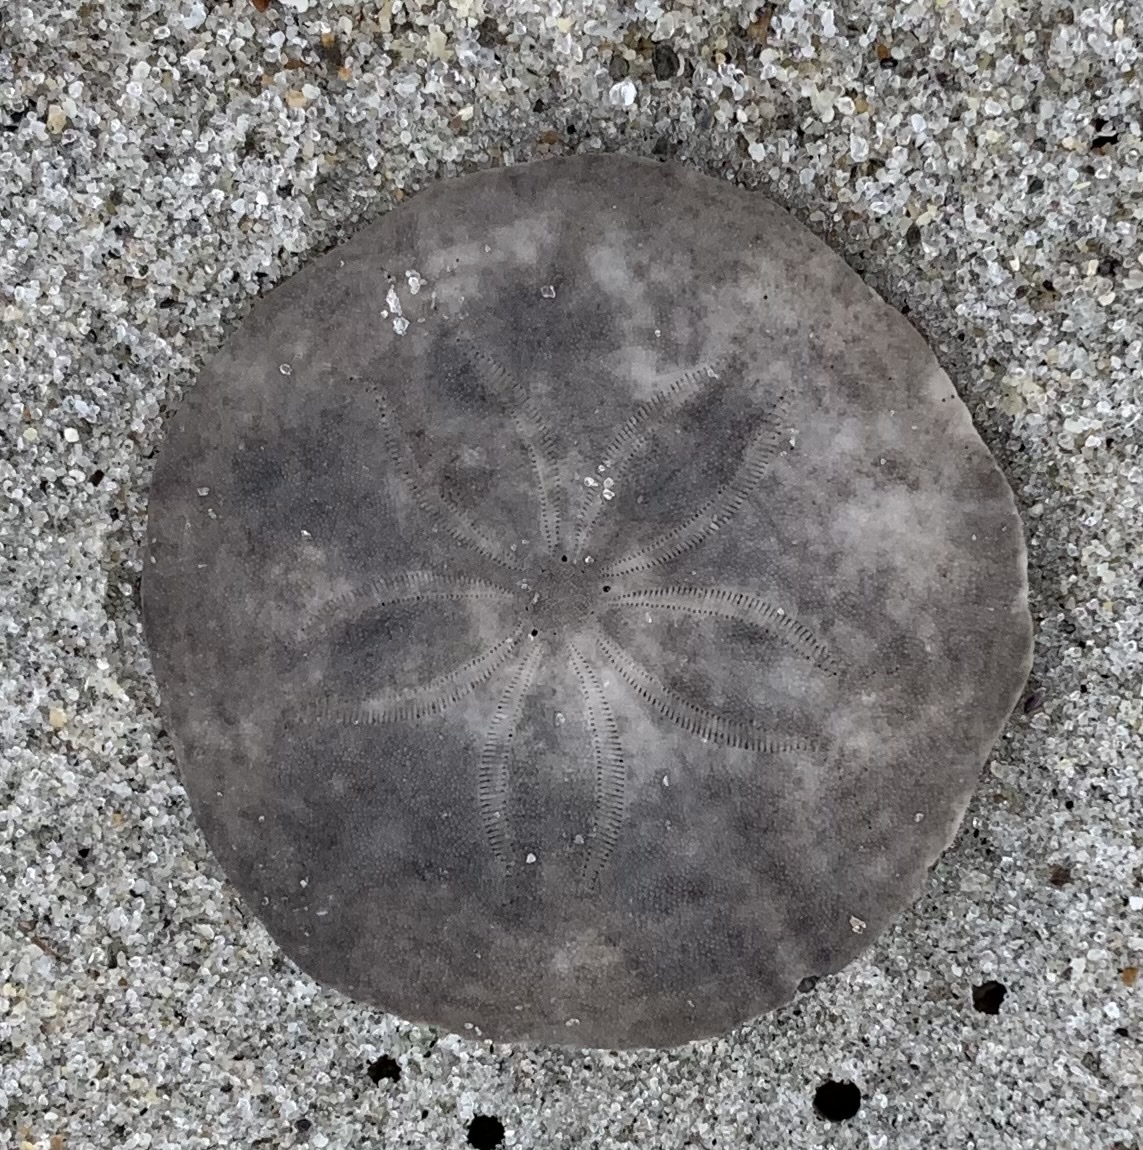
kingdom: Animalia
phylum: Echinodermata
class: Echinoidea
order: Echinolampadacea
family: Echinarachniidae
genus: Echinarachnius
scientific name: Echinarachnius parma
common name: Common sand dollar
